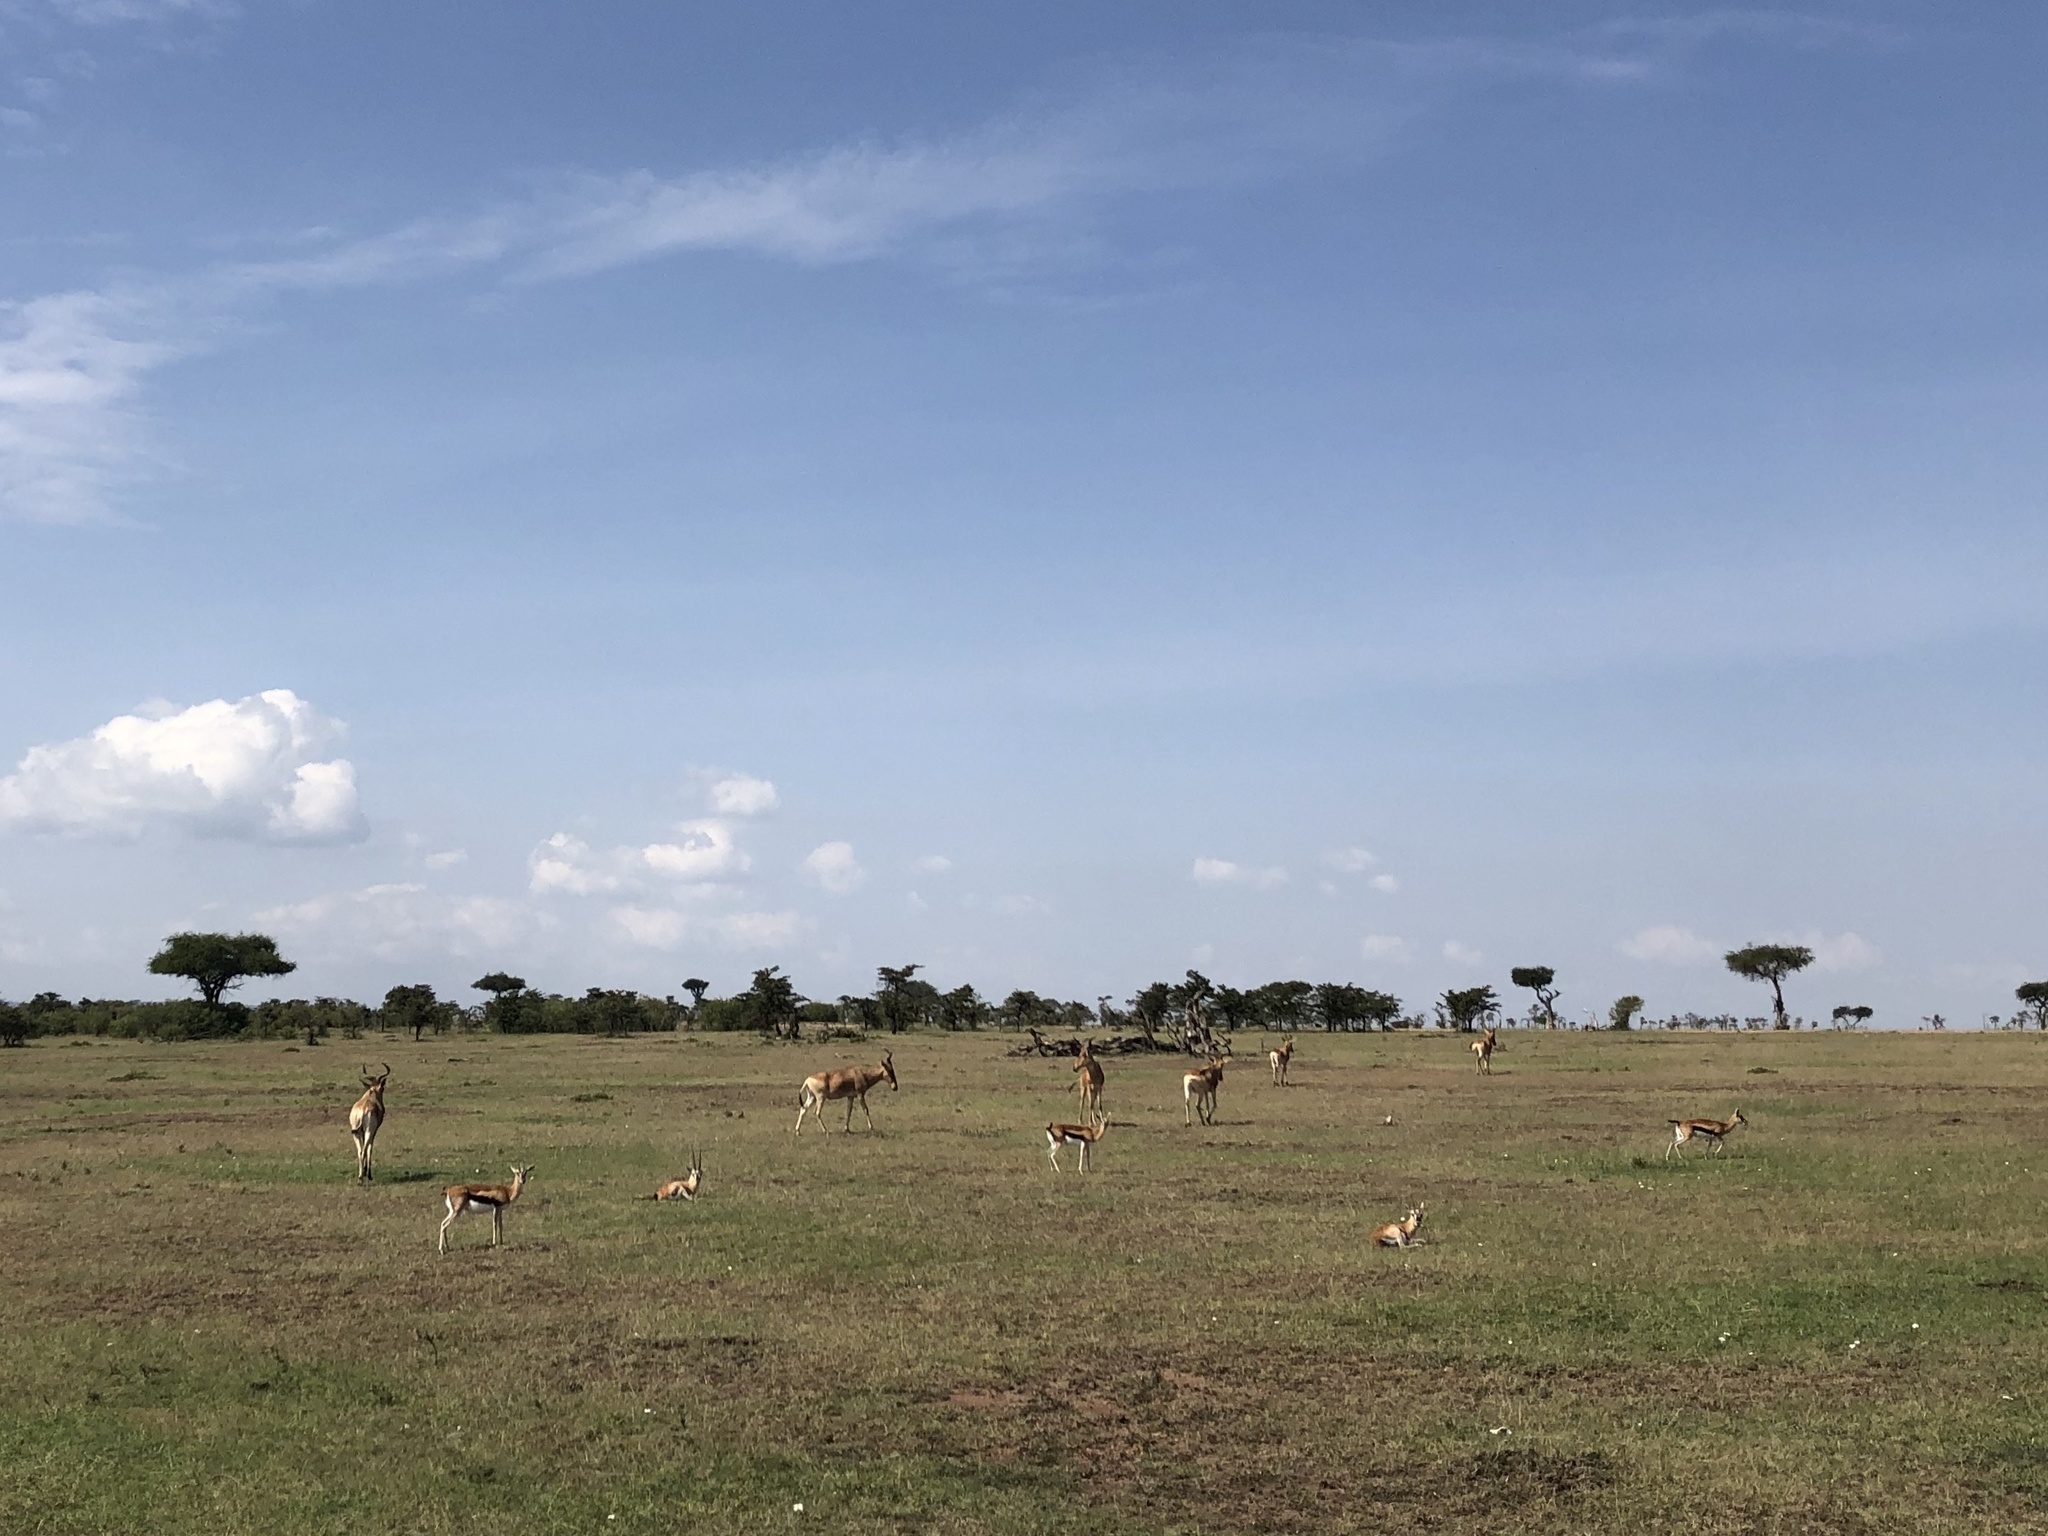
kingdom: Animalia
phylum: Chordata
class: Mammalia
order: Artiodactyla
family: Bovidae
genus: Eudorcas
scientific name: Eudorcas thomsonii
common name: Thomson's gazelle
